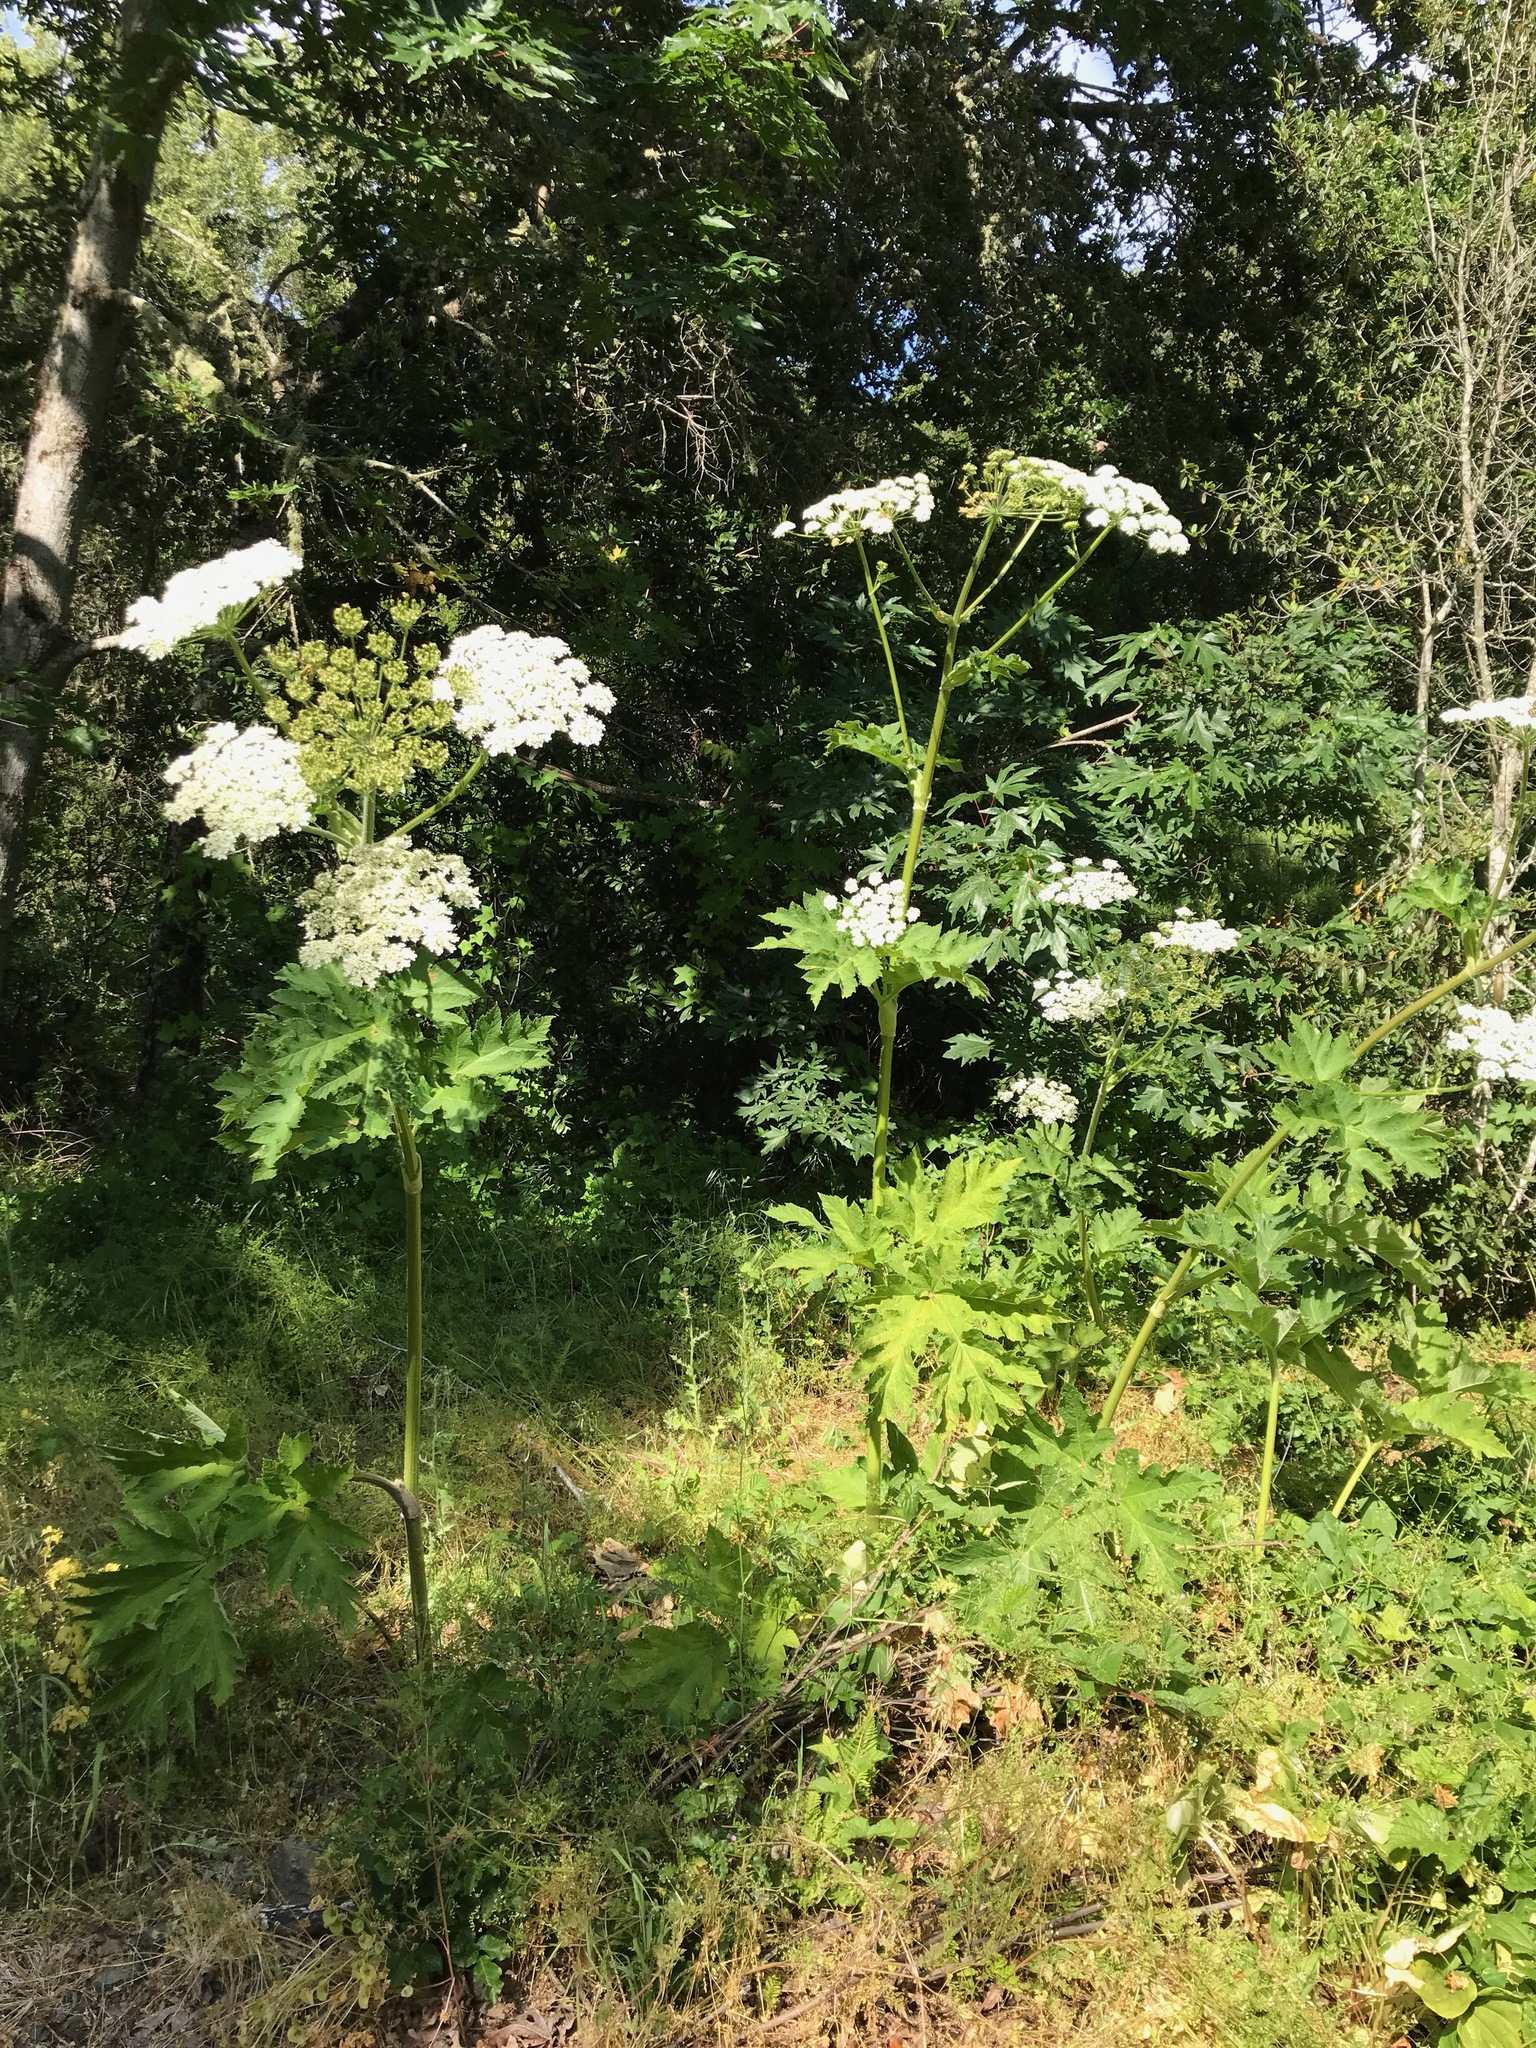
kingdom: Plantae
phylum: Tracheophyta
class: Magnoliopsida
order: Apiales
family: Apiaceae
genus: Heracleum
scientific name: Heracleum maximum
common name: American cow parsnip
